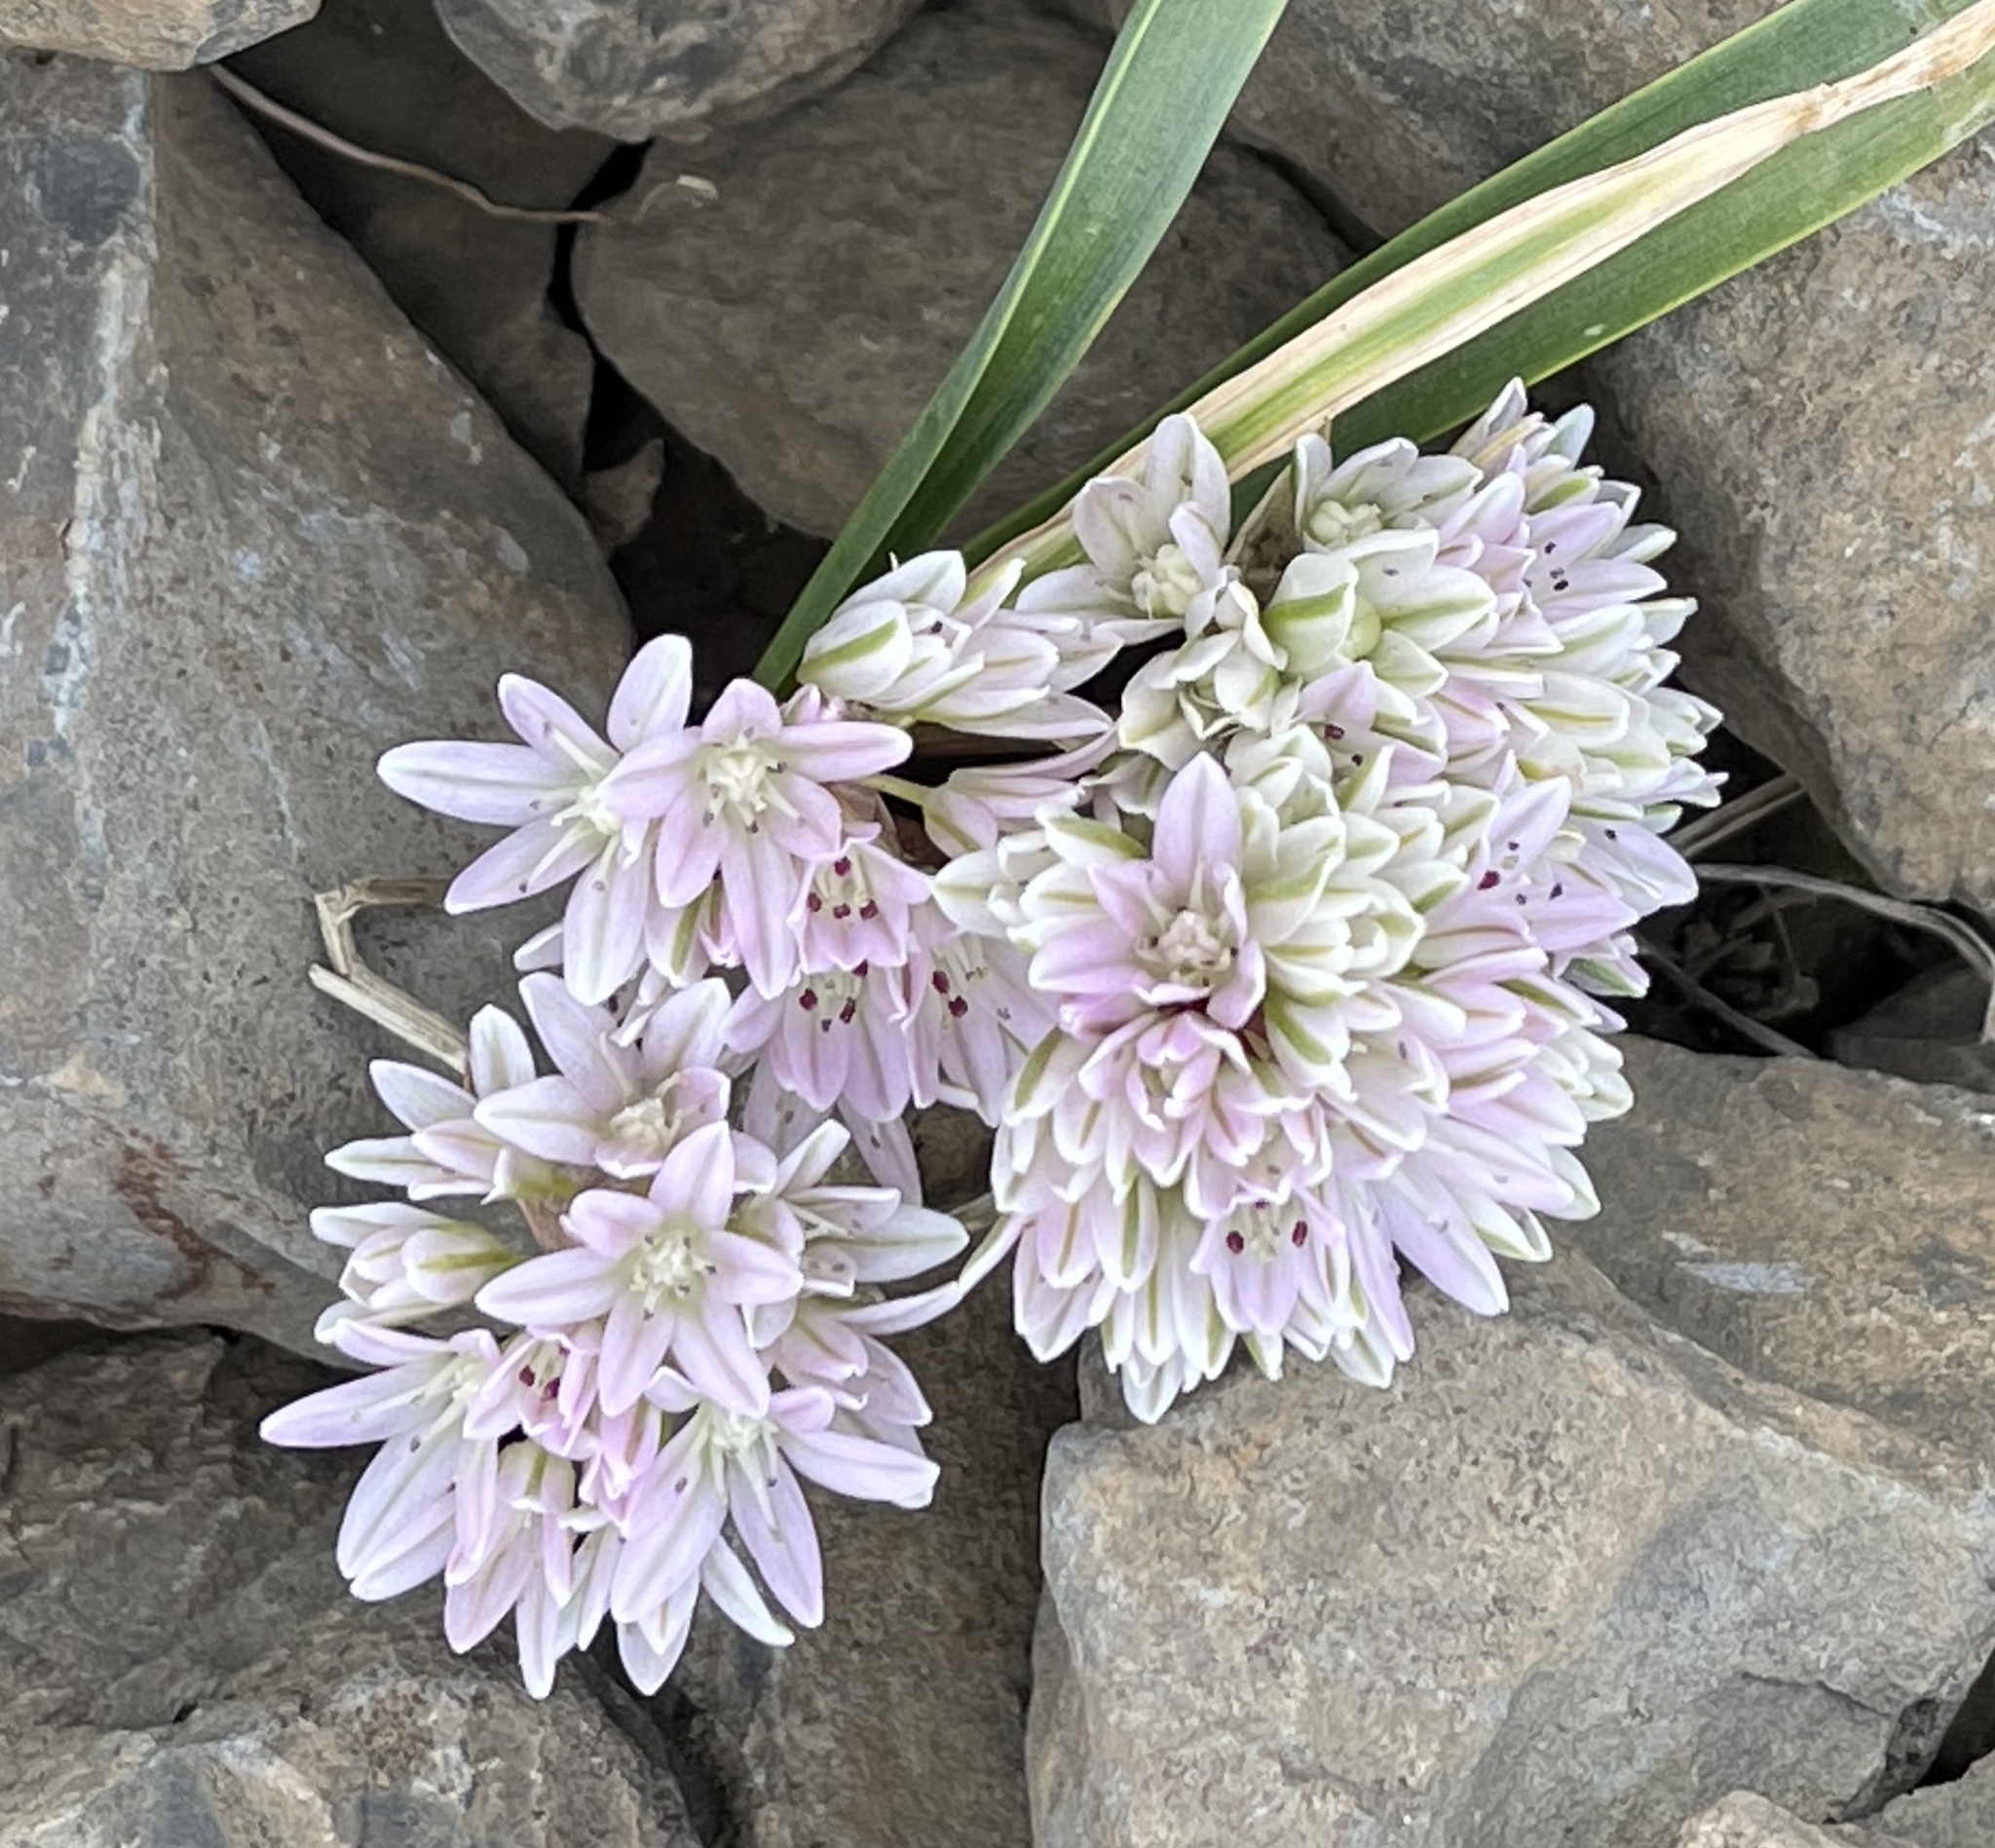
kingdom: Plantae
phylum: Tracheophyta
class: Liliopsida
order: Asparagales
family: Amaryllidaceae
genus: Allium
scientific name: Allium cratericola
